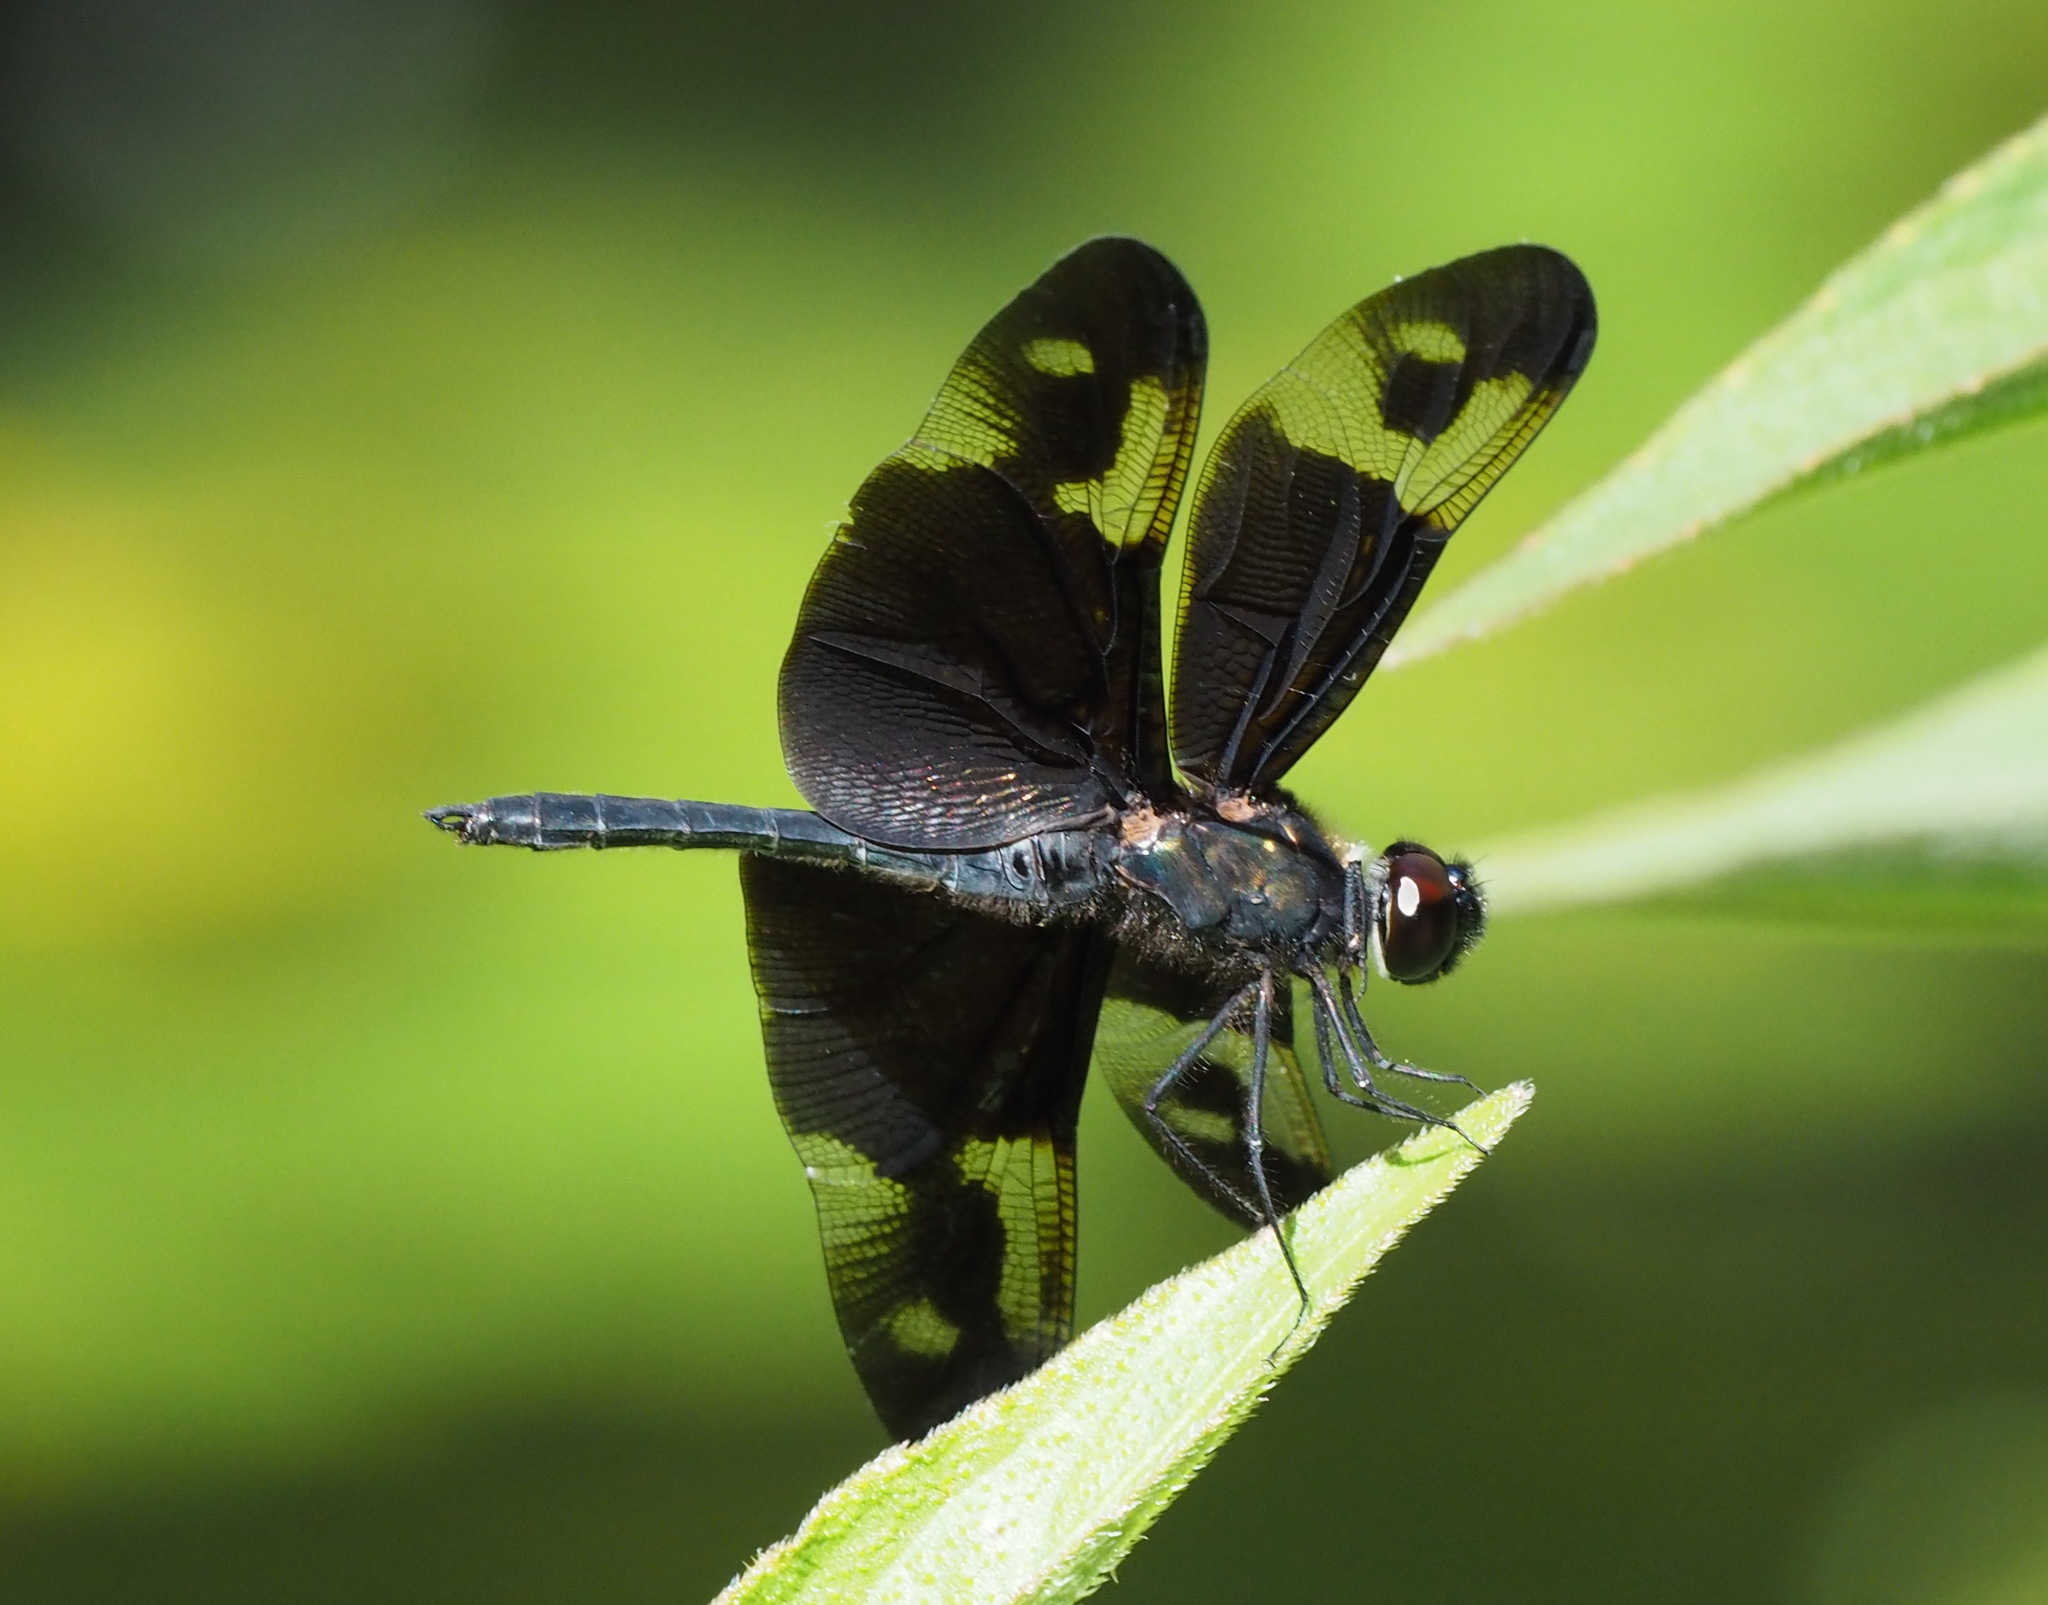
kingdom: Animalia
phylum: Arthropoda
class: Insecta
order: Odonata
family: Libellulidae
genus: Rhyothemis
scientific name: Rhyothemis regia
